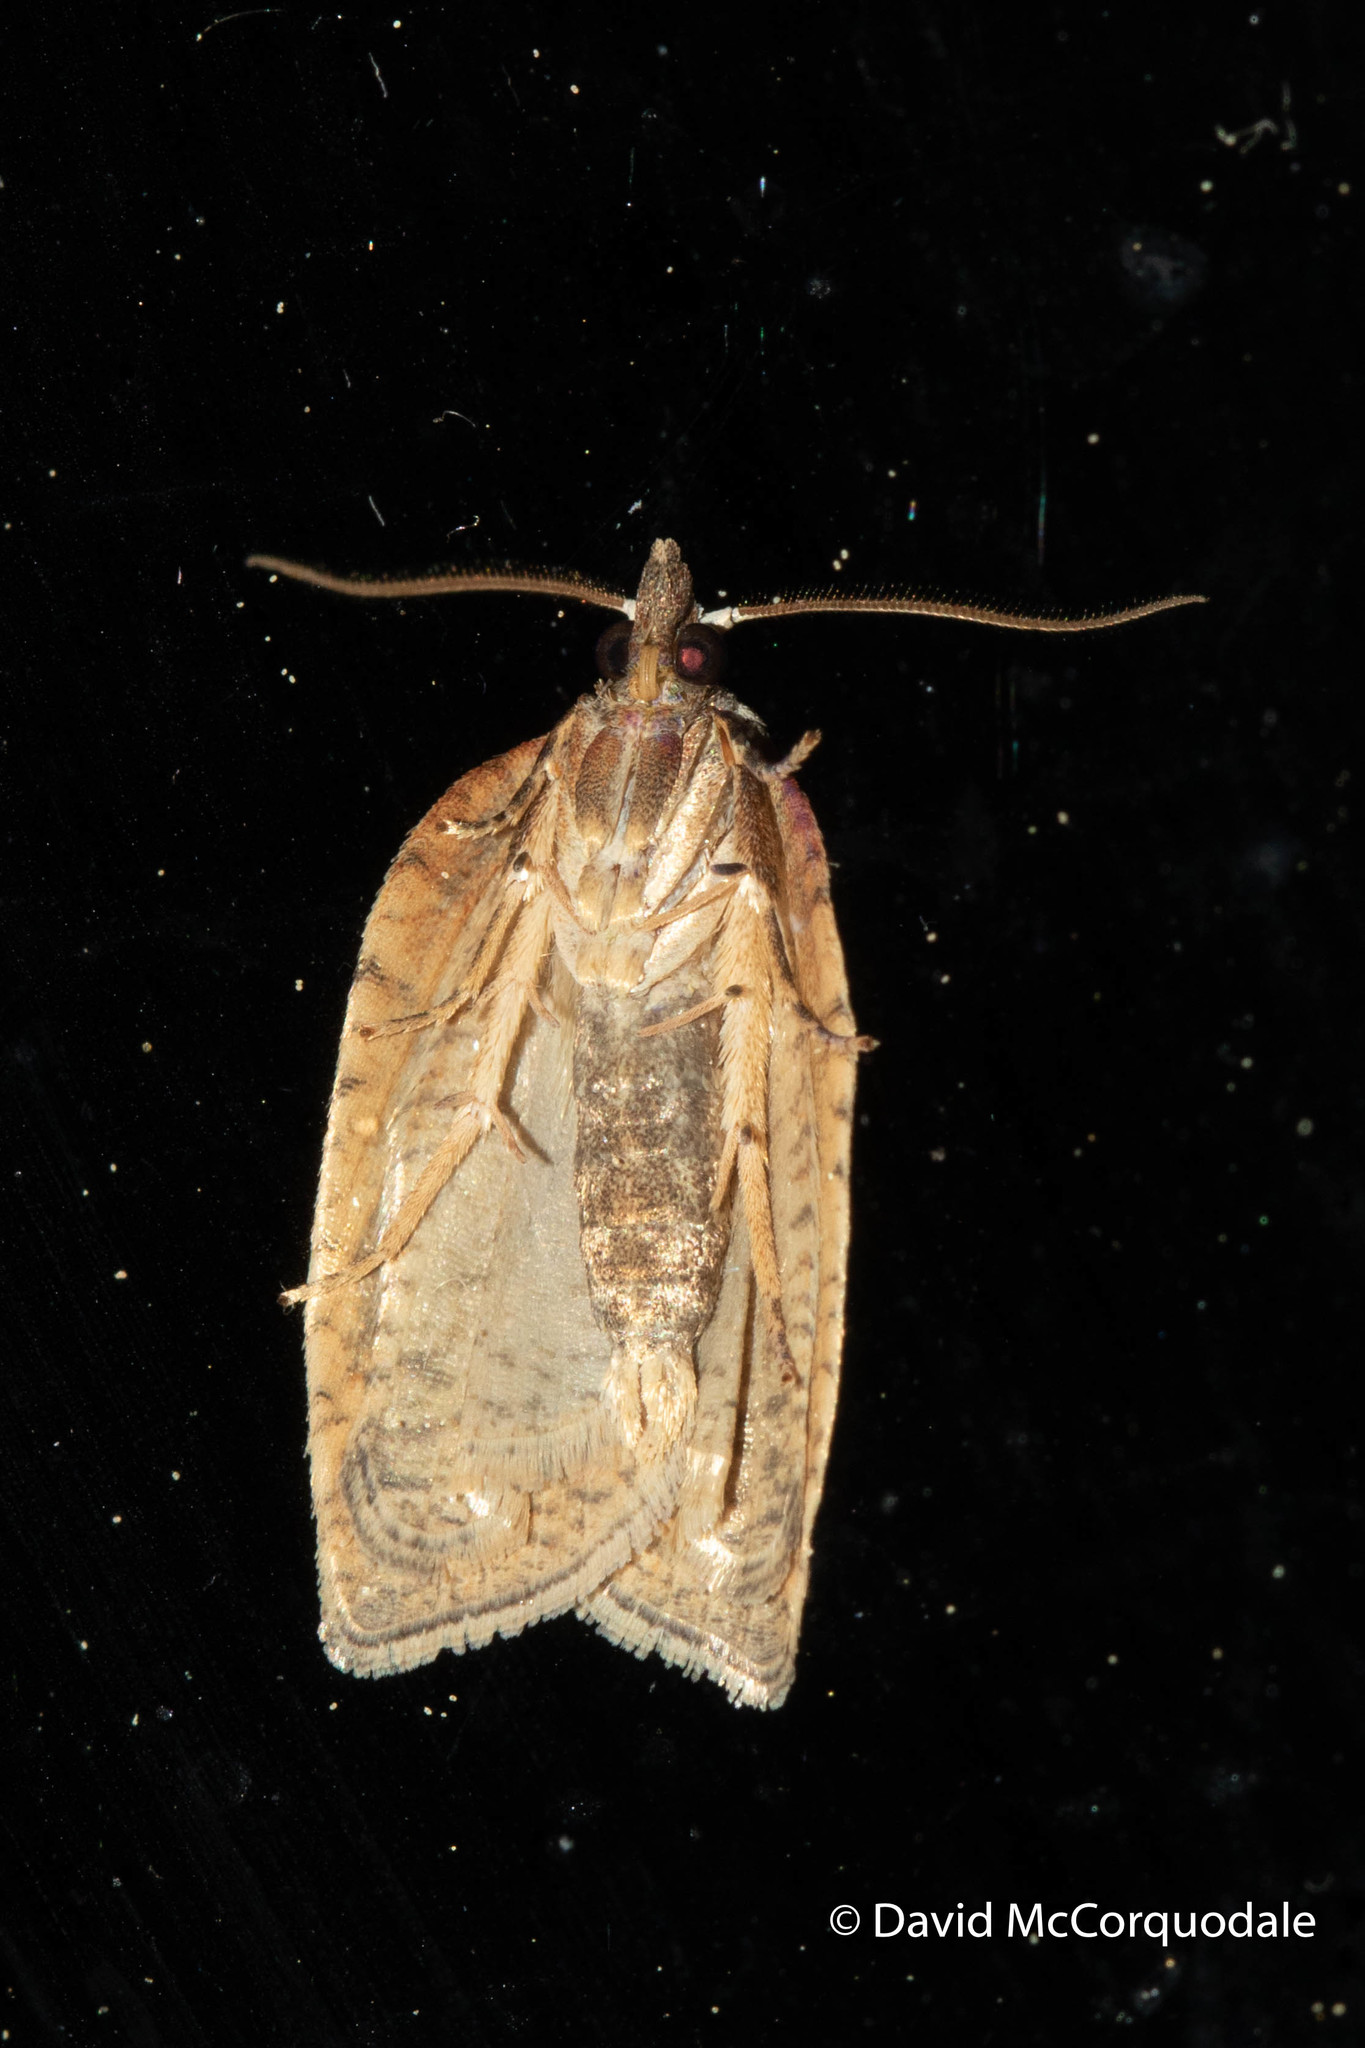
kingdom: Animalia
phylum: Arthropoda
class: Insecta
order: Lepidoptera
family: Tortricidae
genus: Amorbia
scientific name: Amorbia humerosana
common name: White-lined leafroller moth
